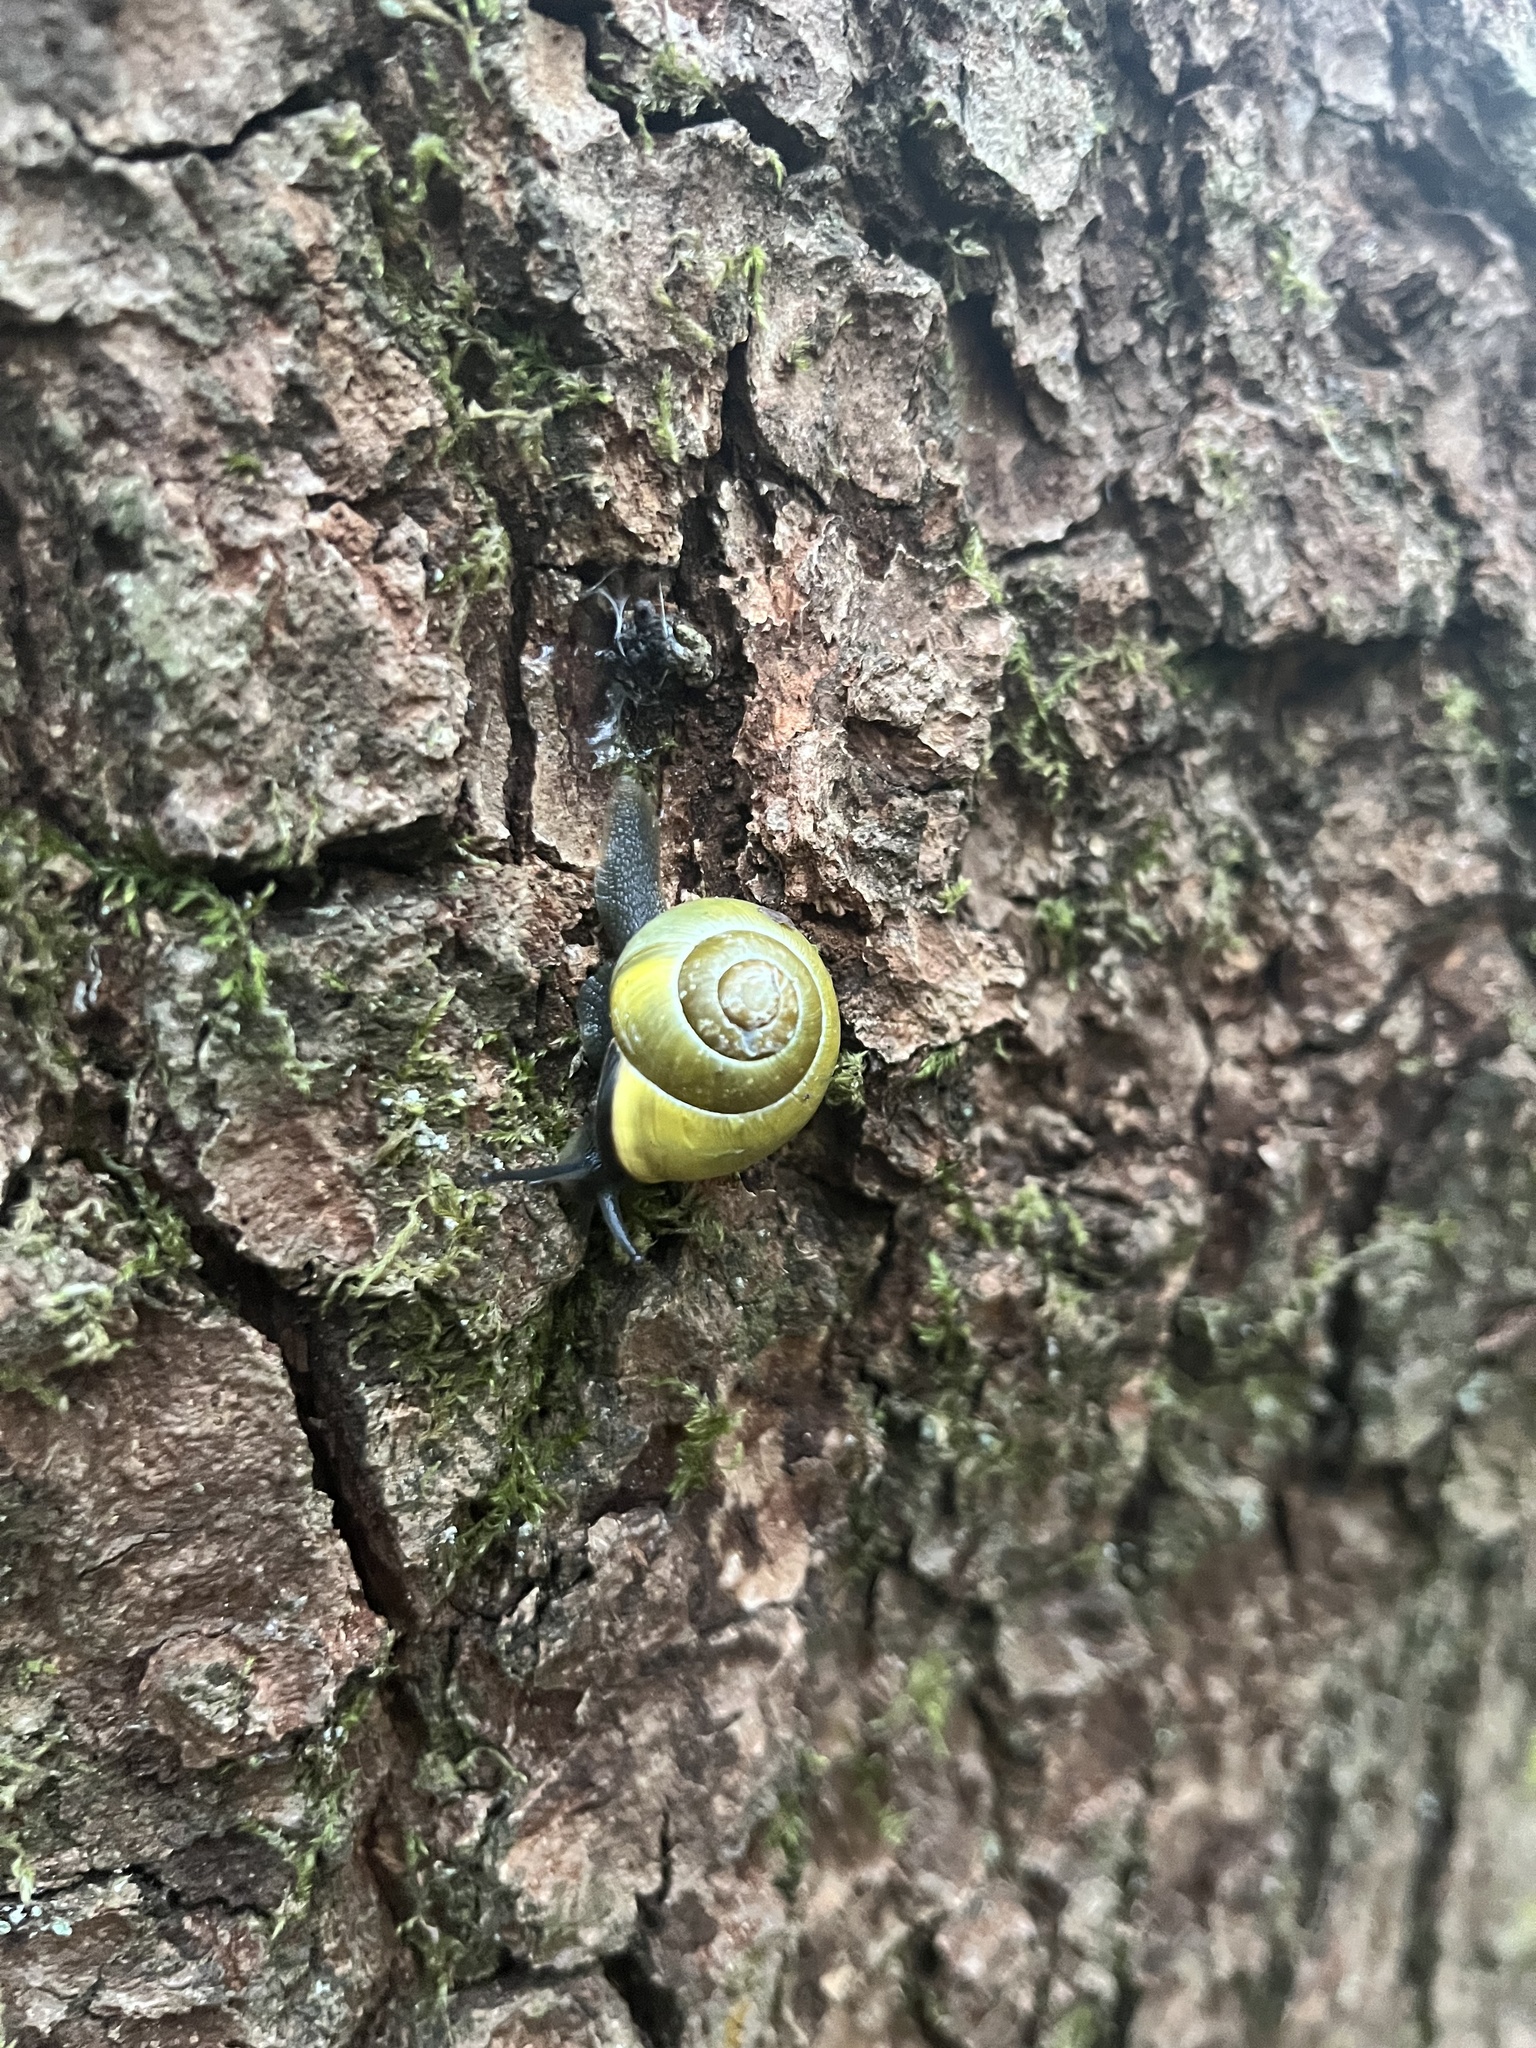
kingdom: Animalia
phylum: Mollusca
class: Gastropoda
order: Stylommatophora
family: Helicidae
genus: Cepaea
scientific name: Cepaea nemoralis
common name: Grovesnail
